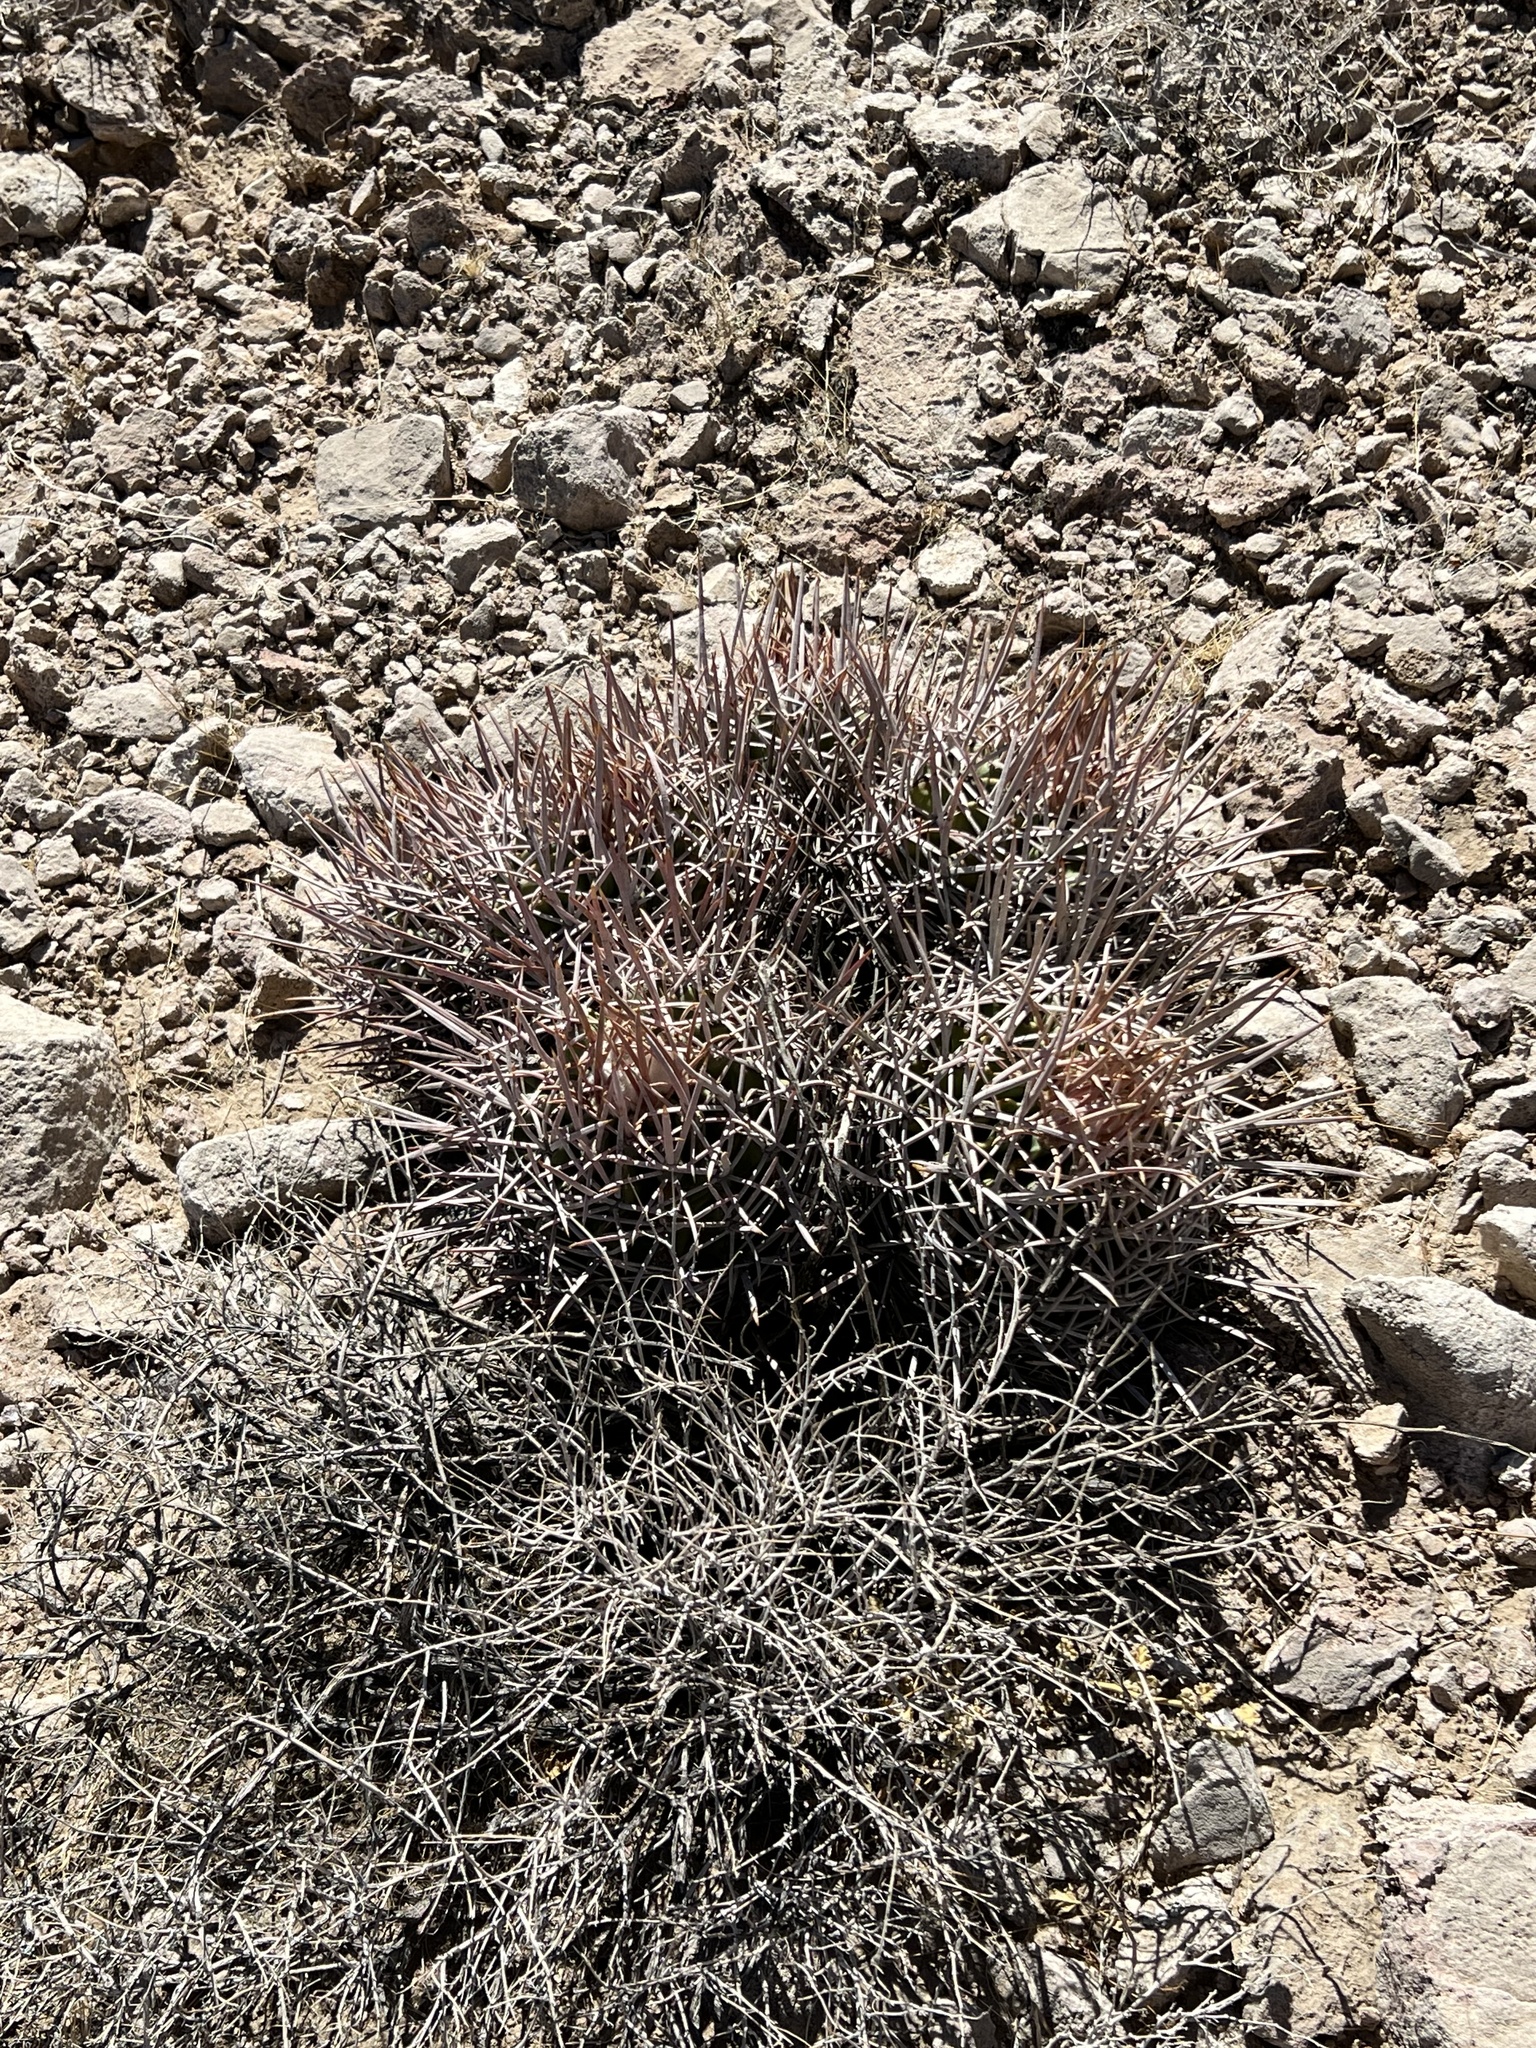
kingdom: Plantae
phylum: Tracheophyta
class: Magnoliopsida
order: Caryophyllales
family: Cactaceae
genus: Echinocactus
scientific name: Echinocactus polycephalus
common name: Cottontop cactus
